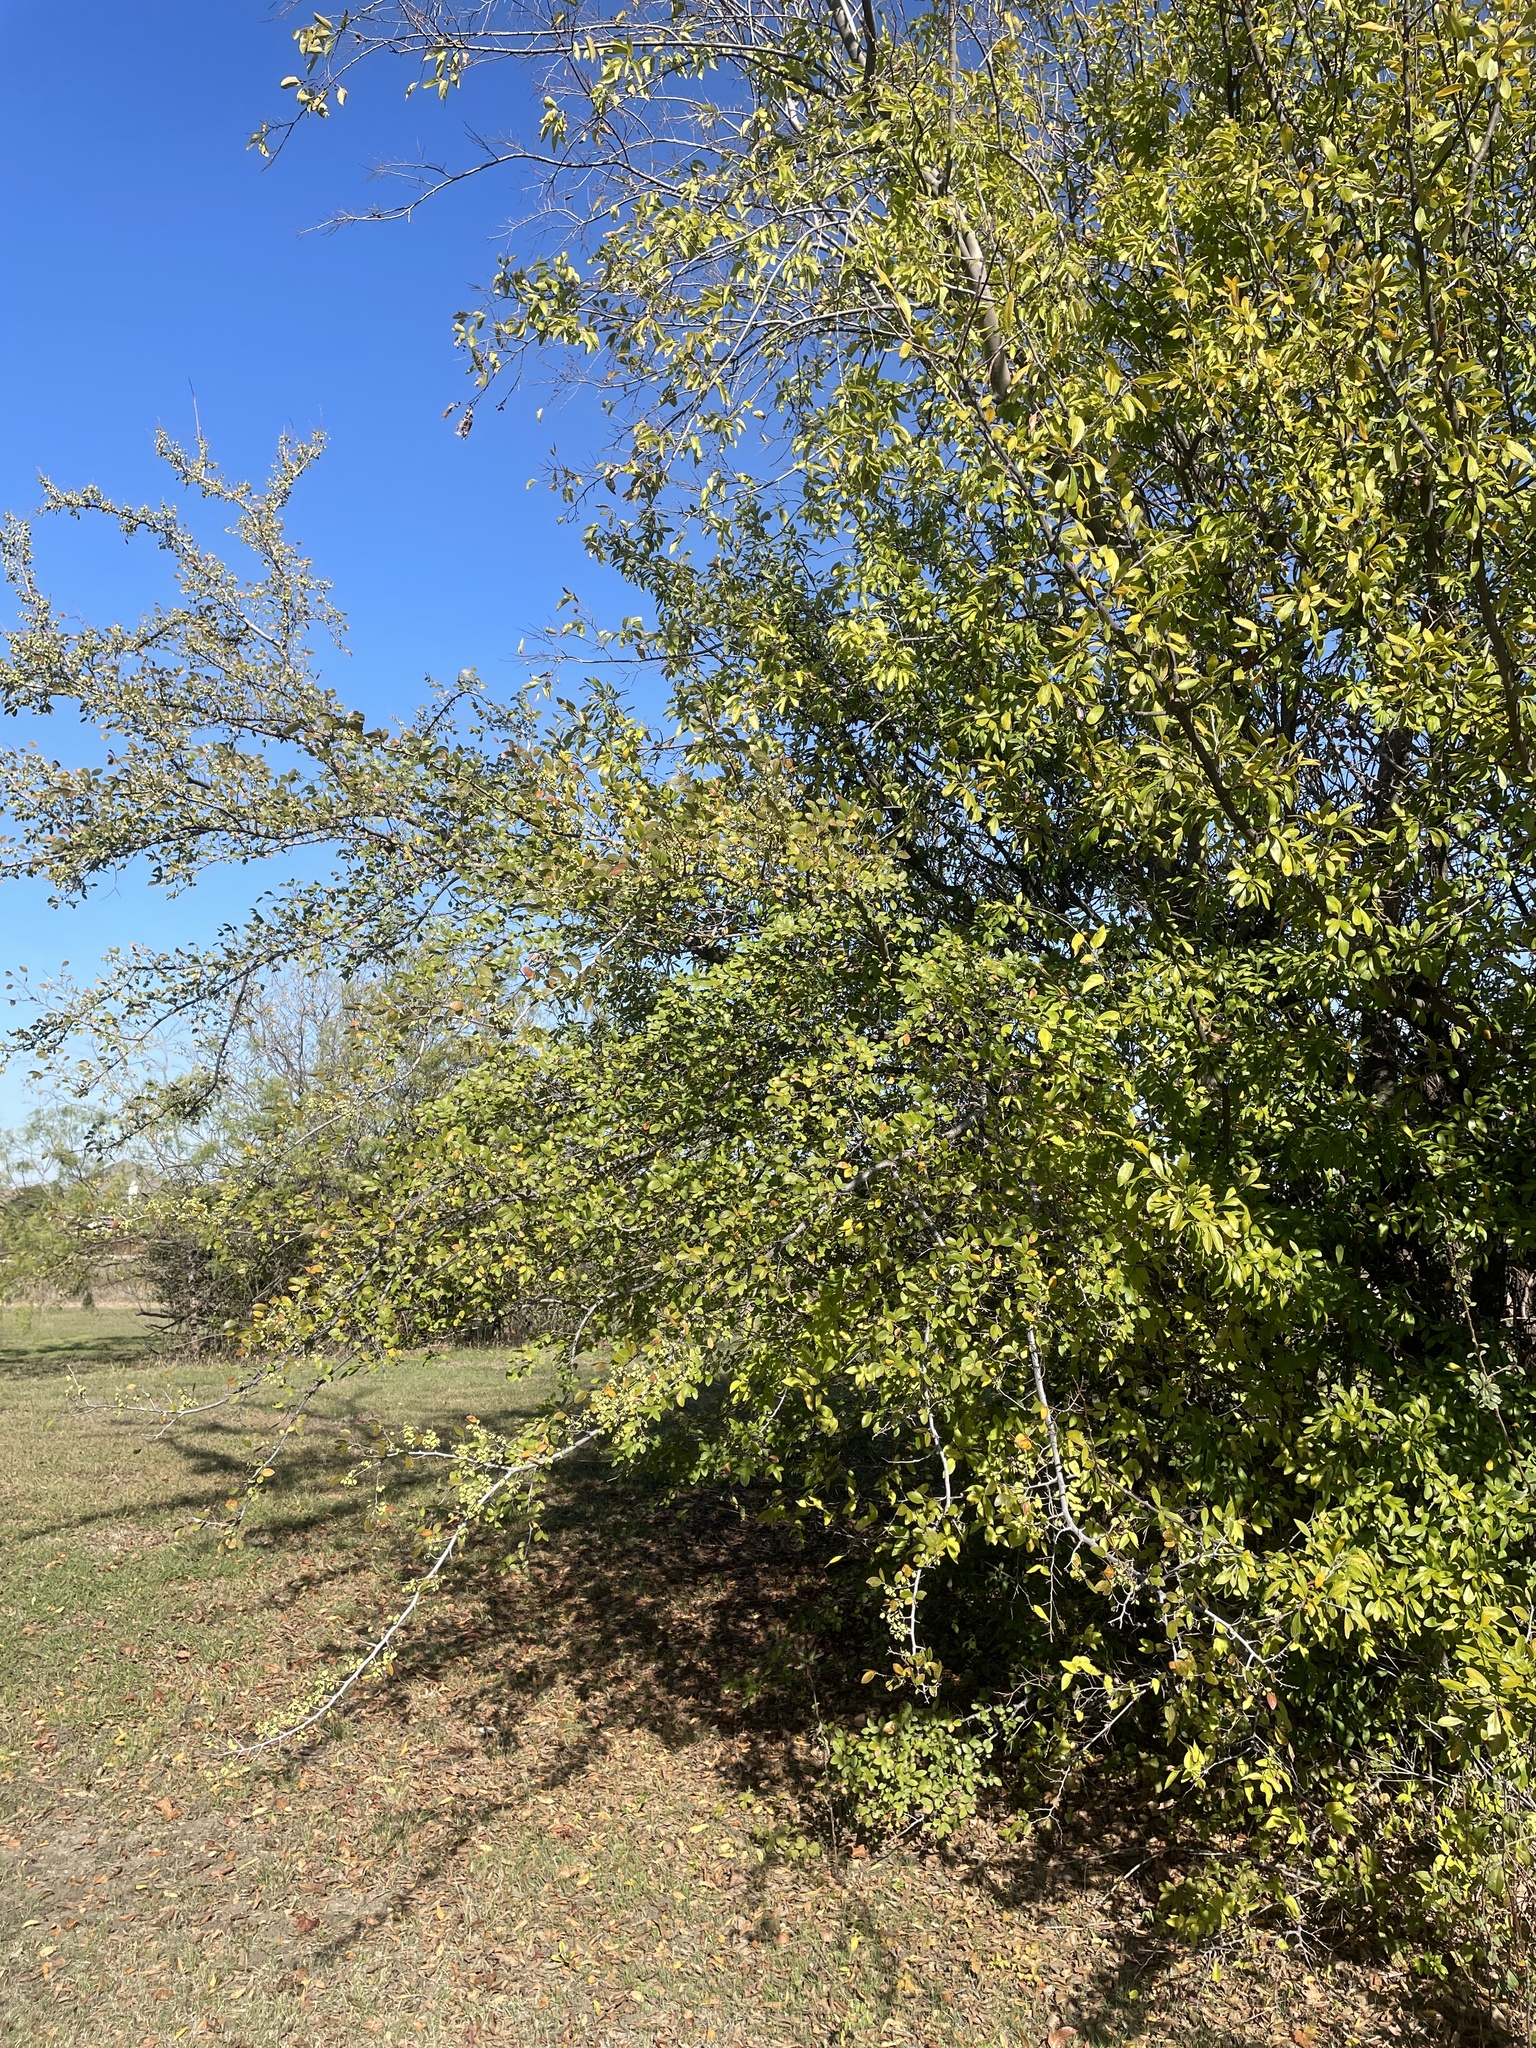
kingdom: Plantae
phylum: Tracheophyta
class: Magnoliopsida
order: Rosales
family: Ulmaceae
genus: Ulmus
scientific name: Ulmus crassifolia
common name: Basket elm
